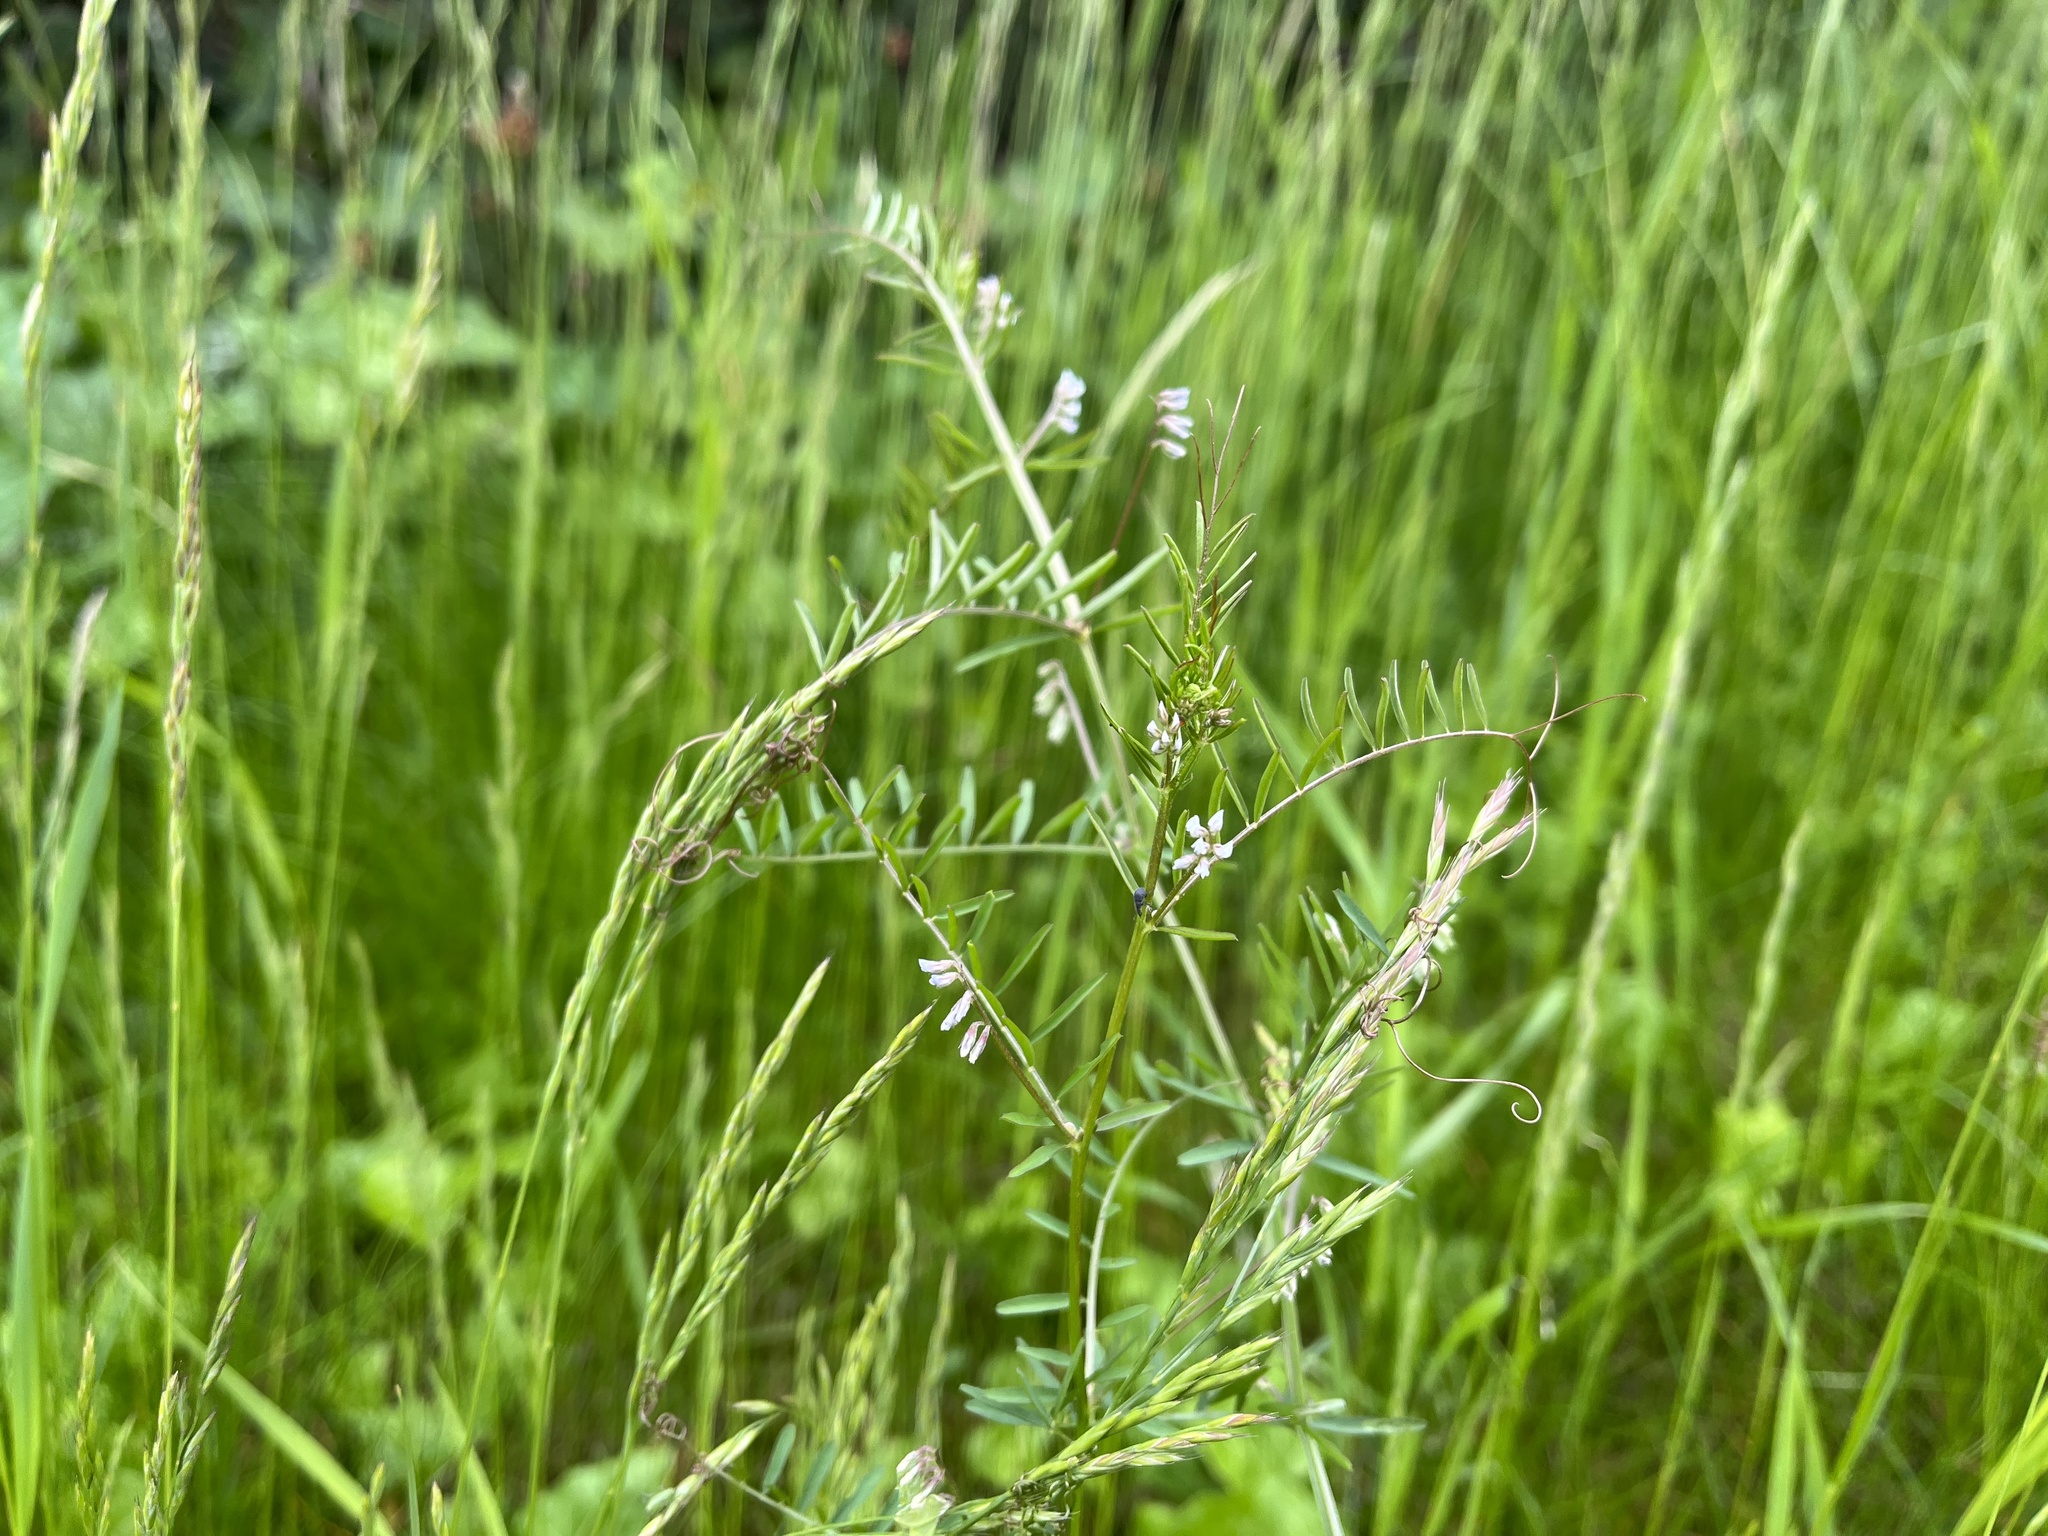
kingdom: Plantae
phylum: Tracheophyta
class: Magnoliopsida
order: Fabales
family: Fabaceae
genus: Vicia
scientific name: Vicia hirsuta
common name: Tiny vetch
